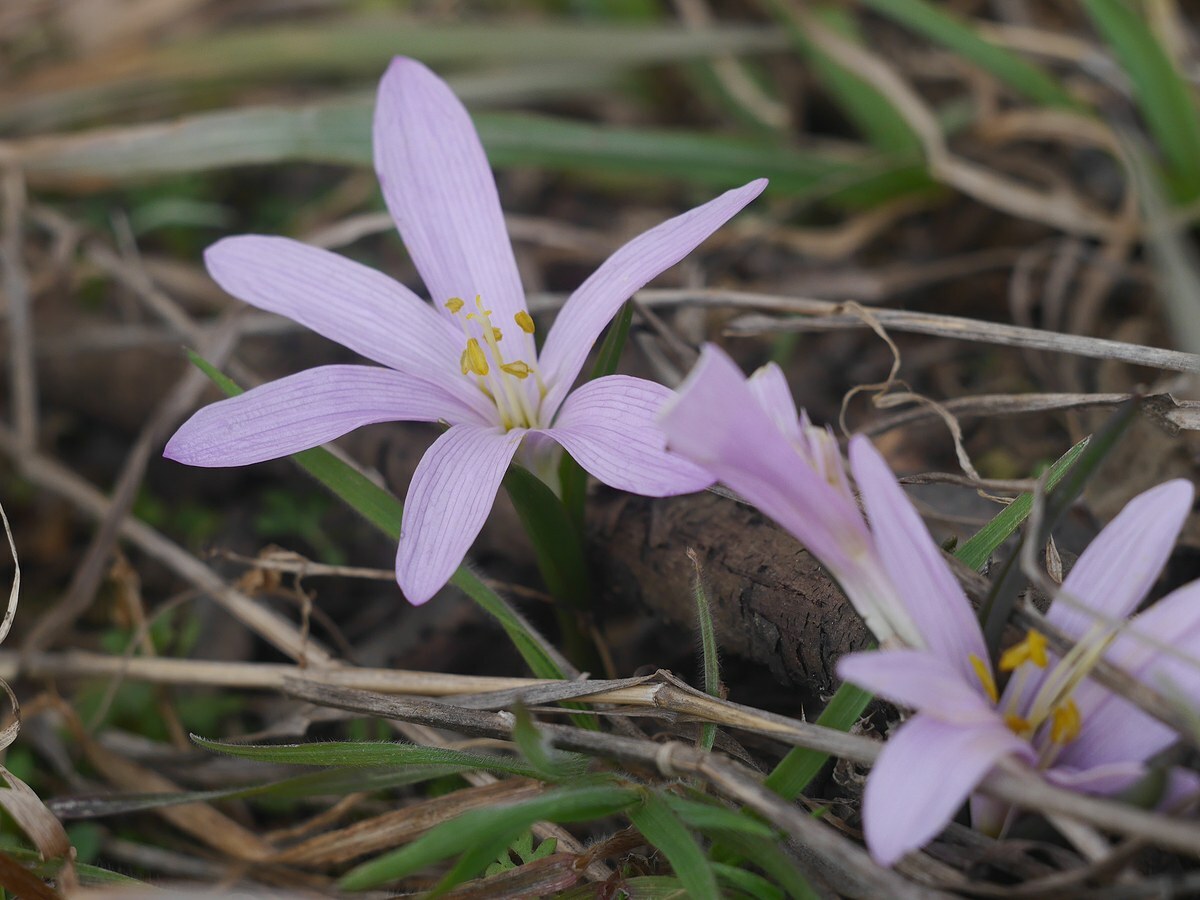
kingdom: Plantae
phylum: Tracheophyta
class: Liliopsida
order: Liliales
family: Colchicaceae
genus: Colchicum
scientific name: Colchicum bulbocodium
